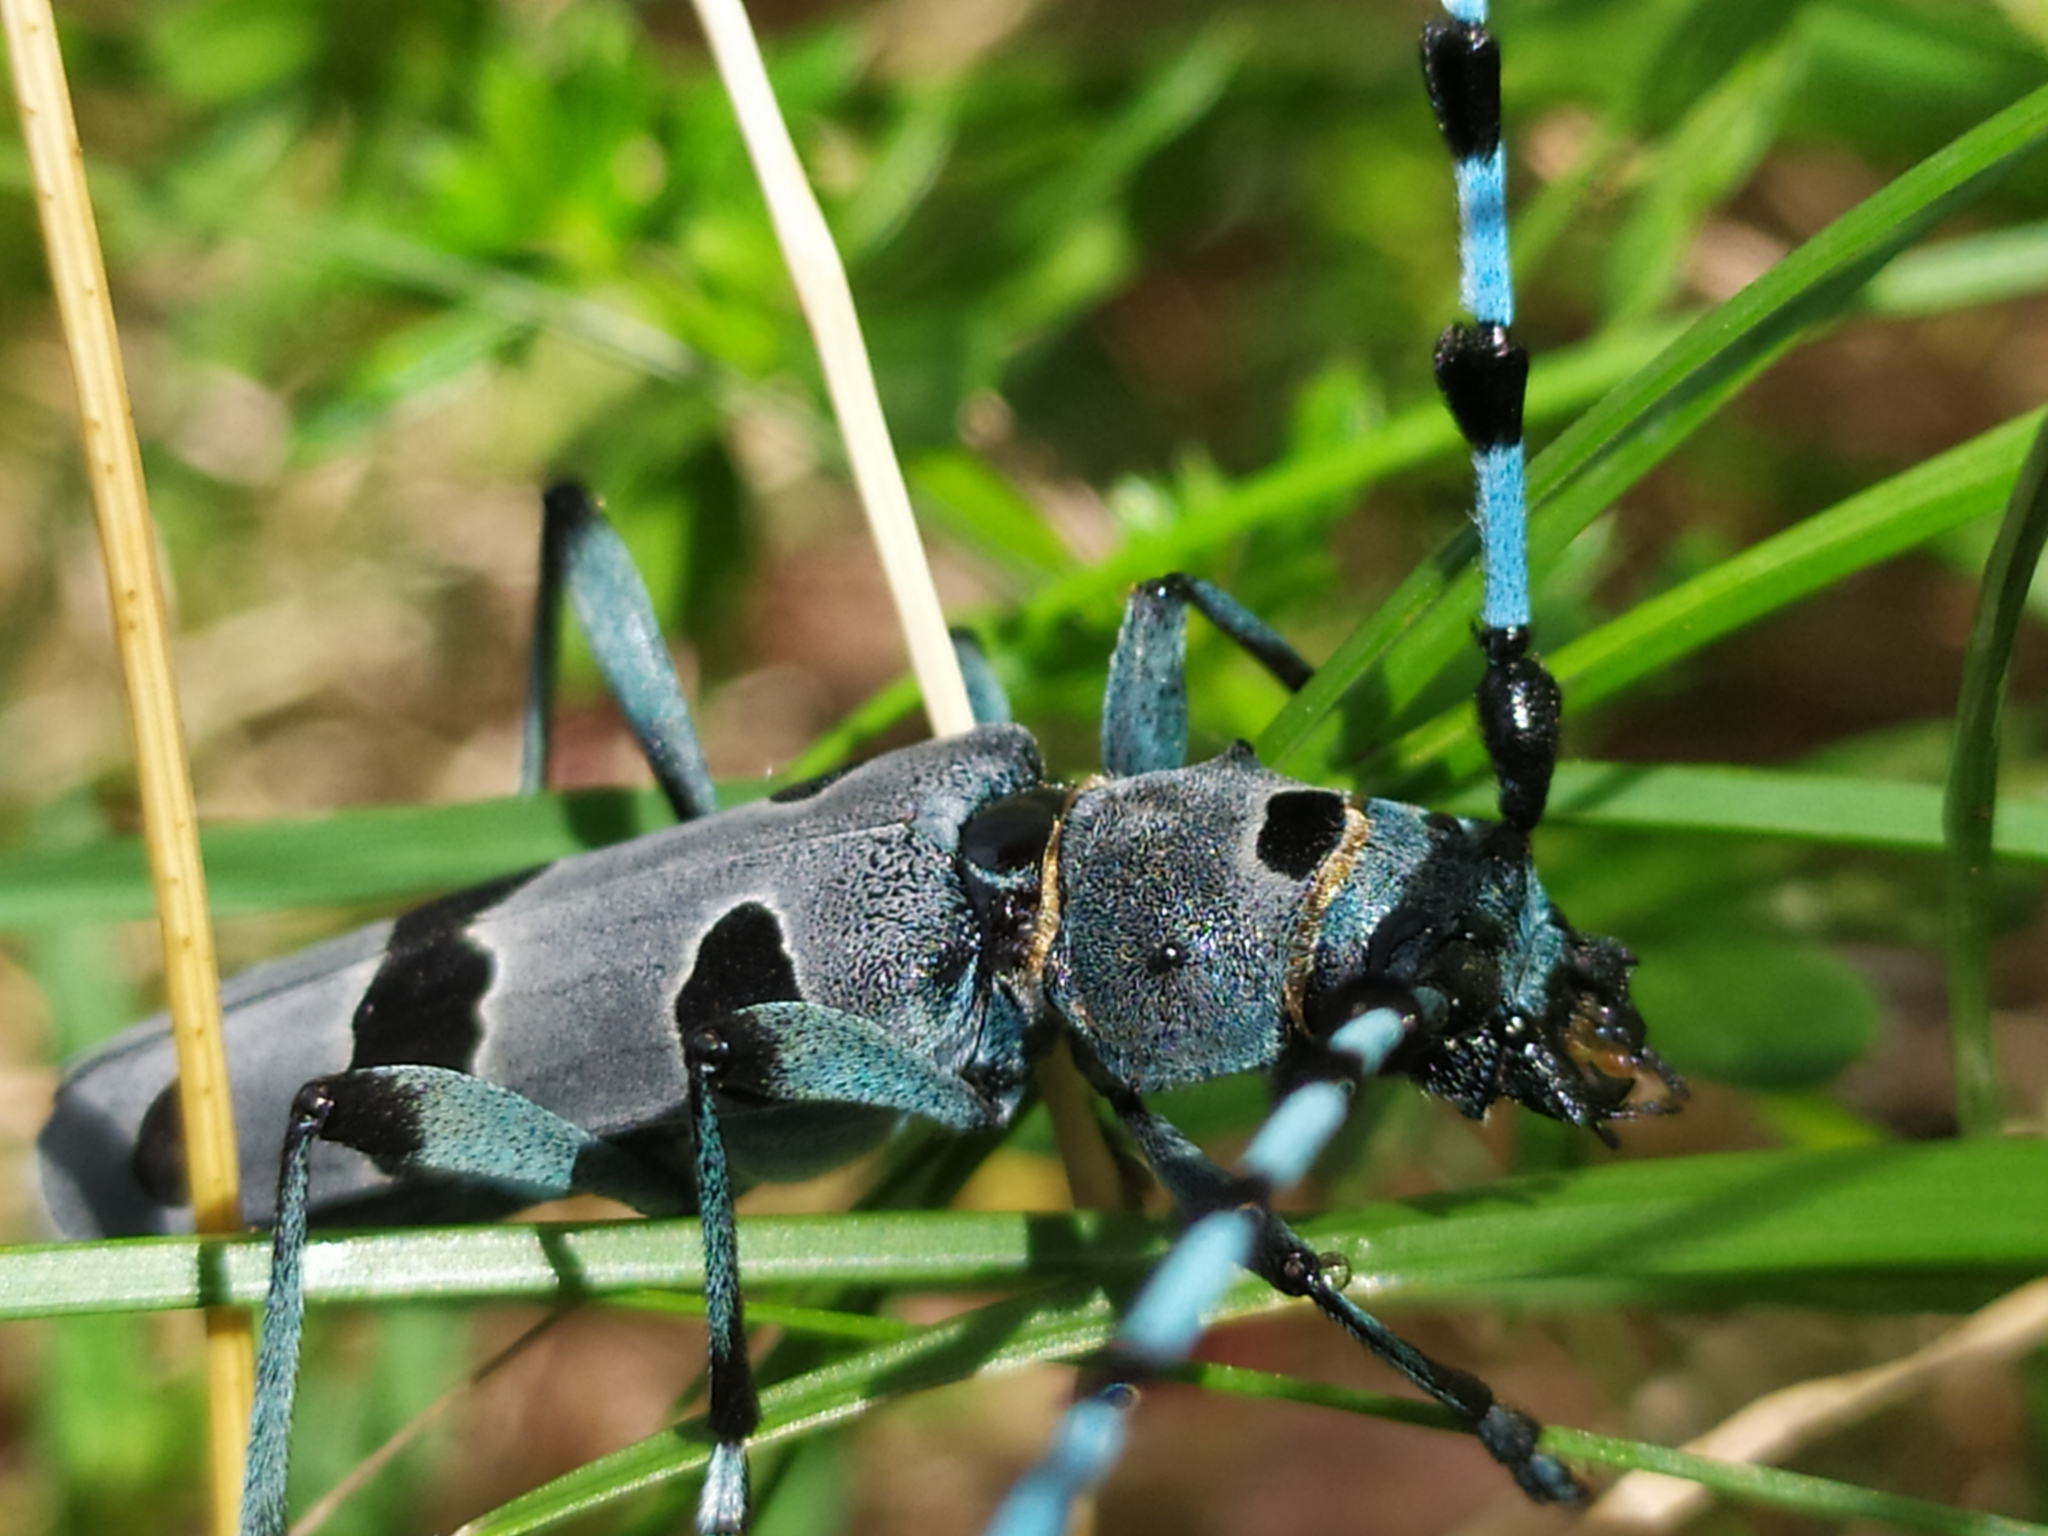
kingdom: Animalia
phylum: Arthropoda
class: Insecta
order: Coleoptera
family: Cerambycidae
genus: Rosalia
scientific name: Rosalia alpina
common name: Rosalia longicorn
